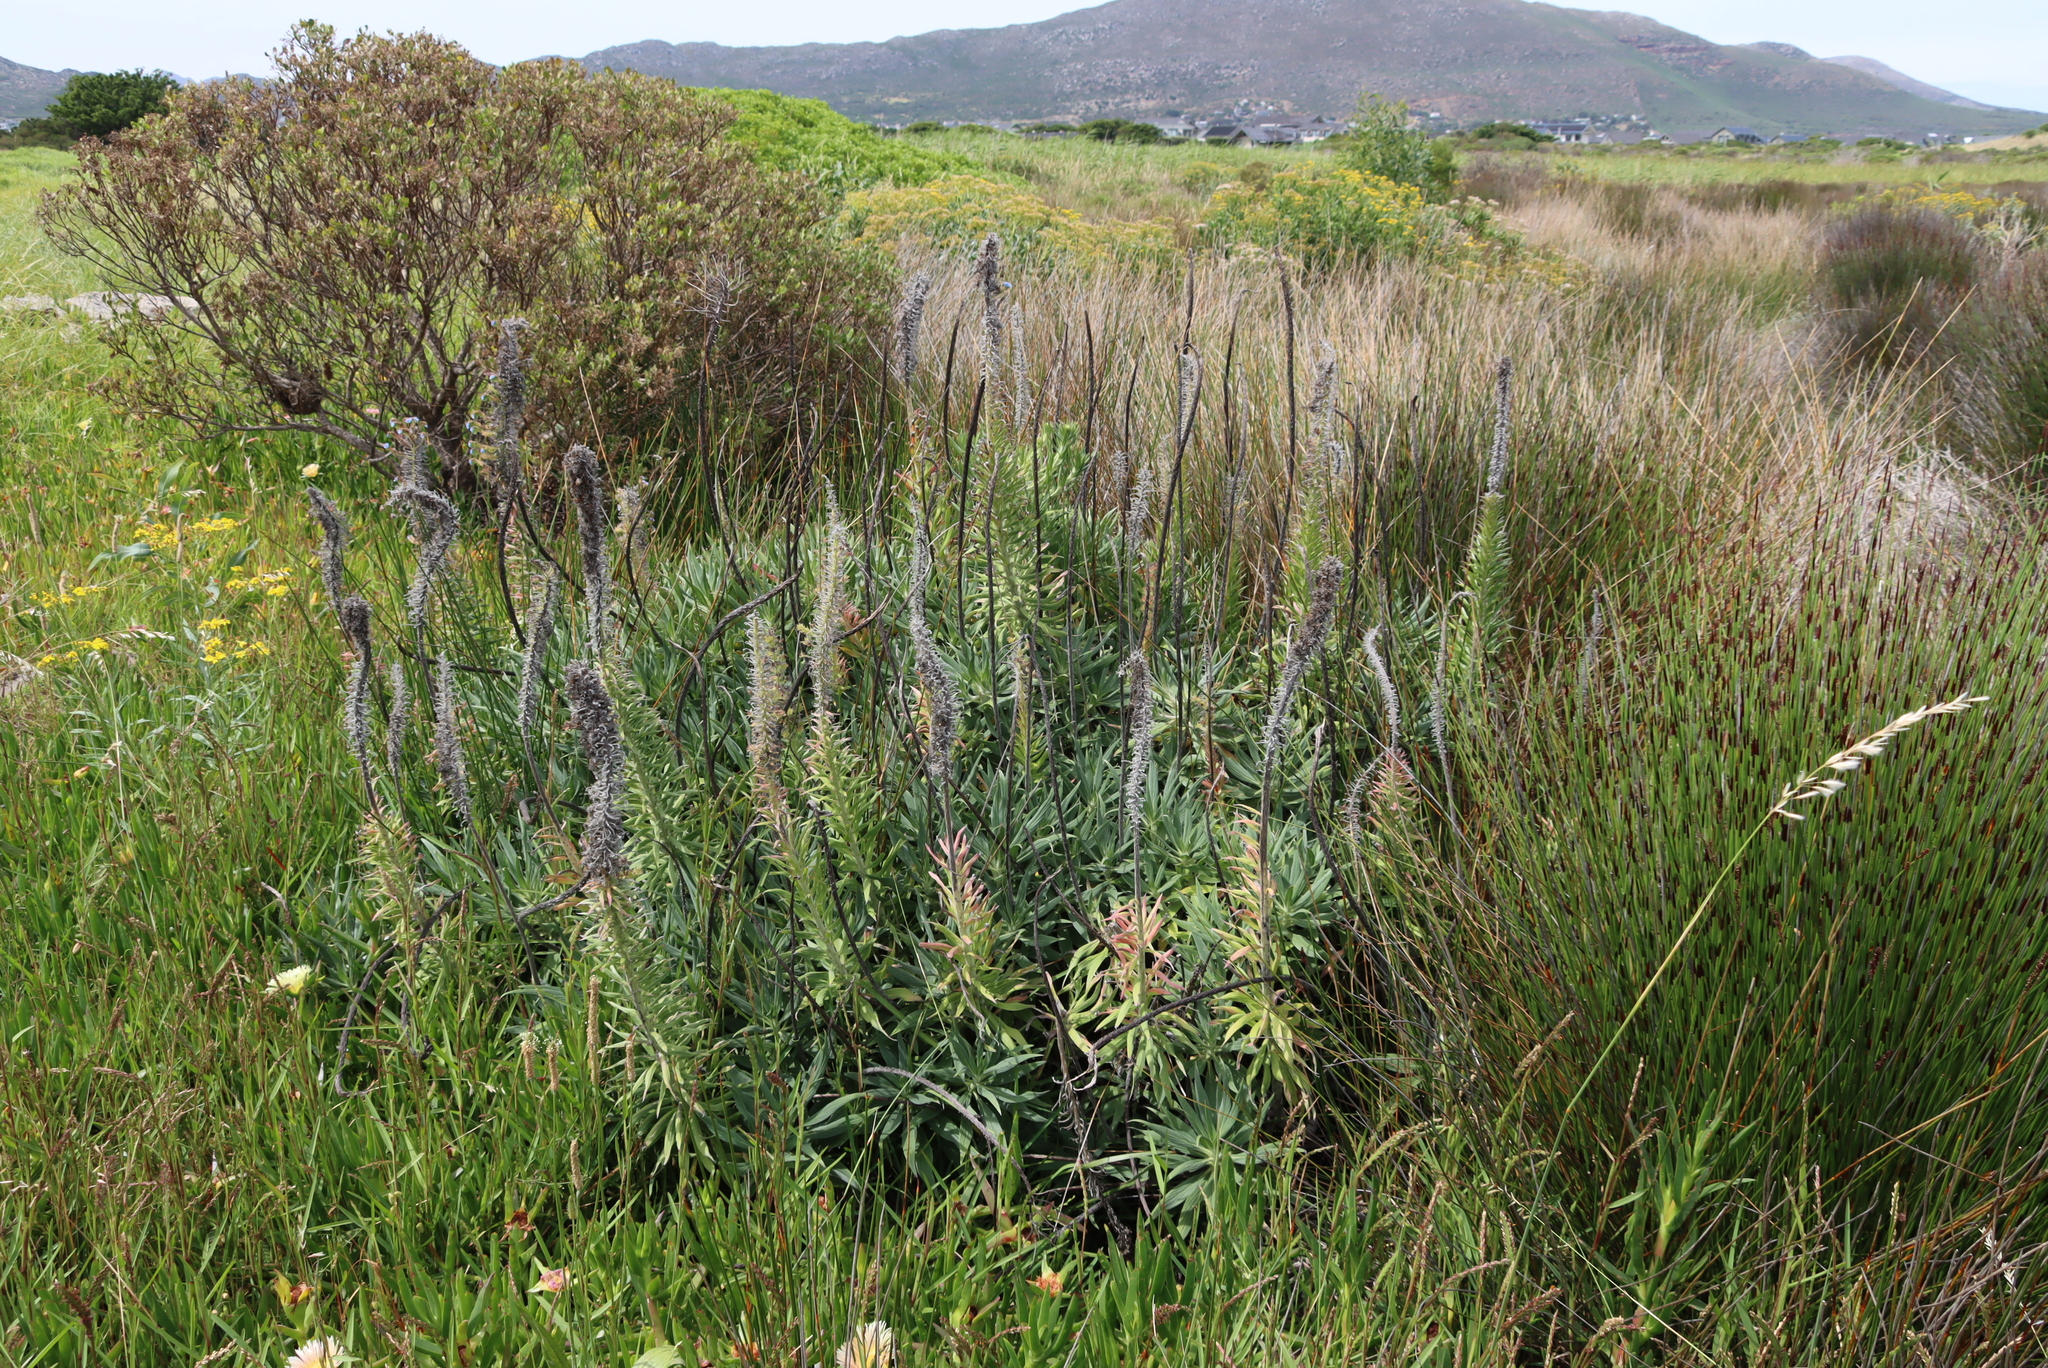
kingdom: Plantae
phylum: Tracheophyta
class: Magnoliopsida
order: Boraginales
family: Boraginaceae
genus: Echium
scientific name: Echium candicans
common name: Pride of madeira
